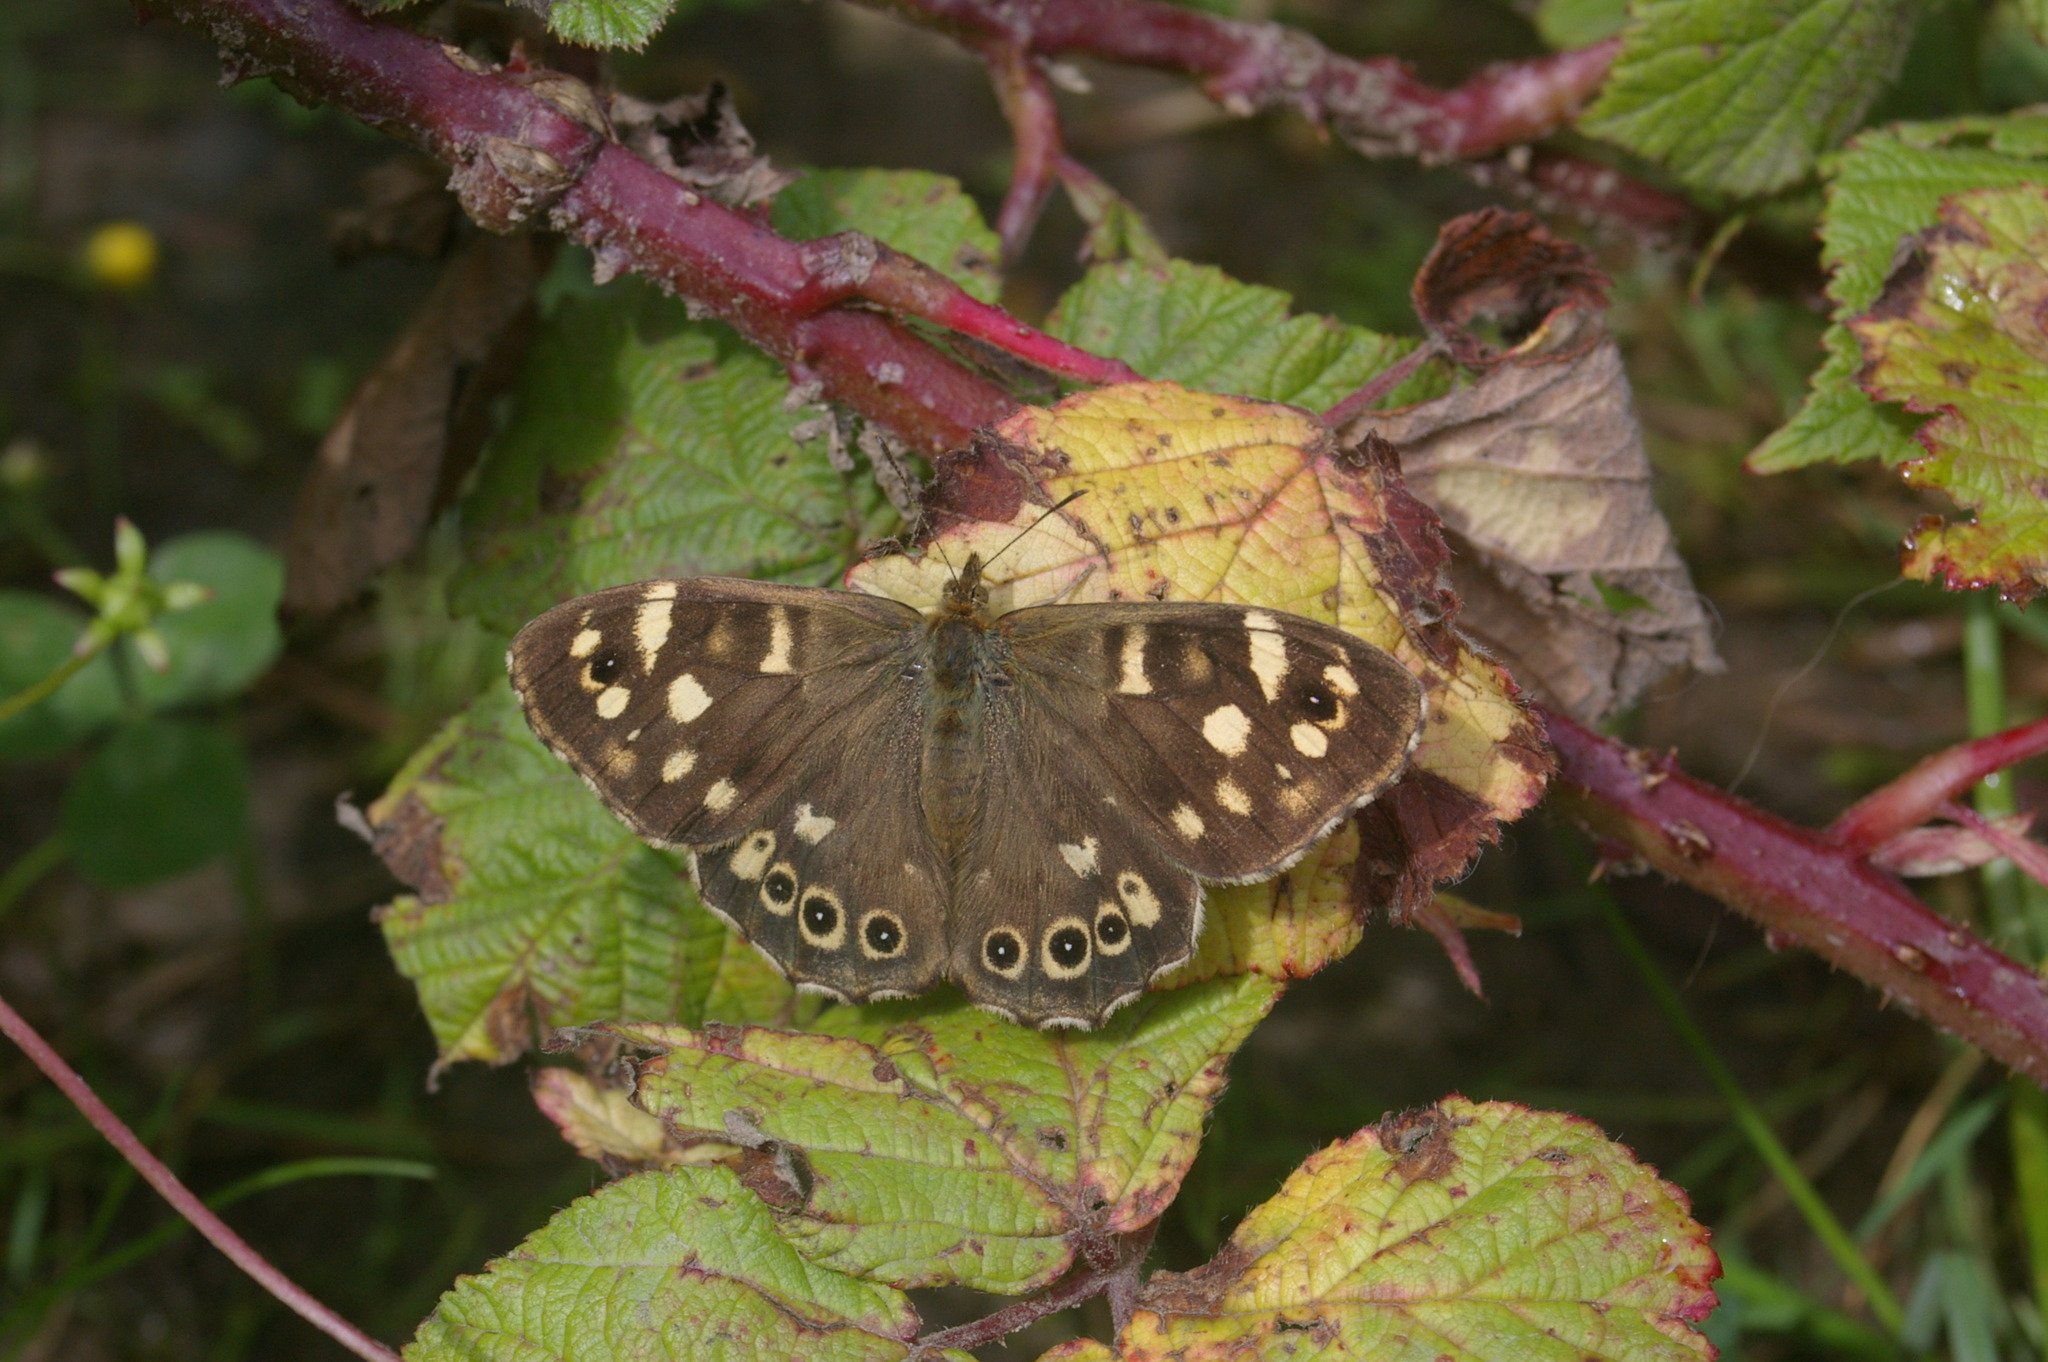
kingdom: Animalia
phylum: Arthropoda
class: Insecta
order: Lepidoptera
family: Nymphalidae
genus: Pararge
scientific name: Pararge aegeria
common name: Speckled wood
